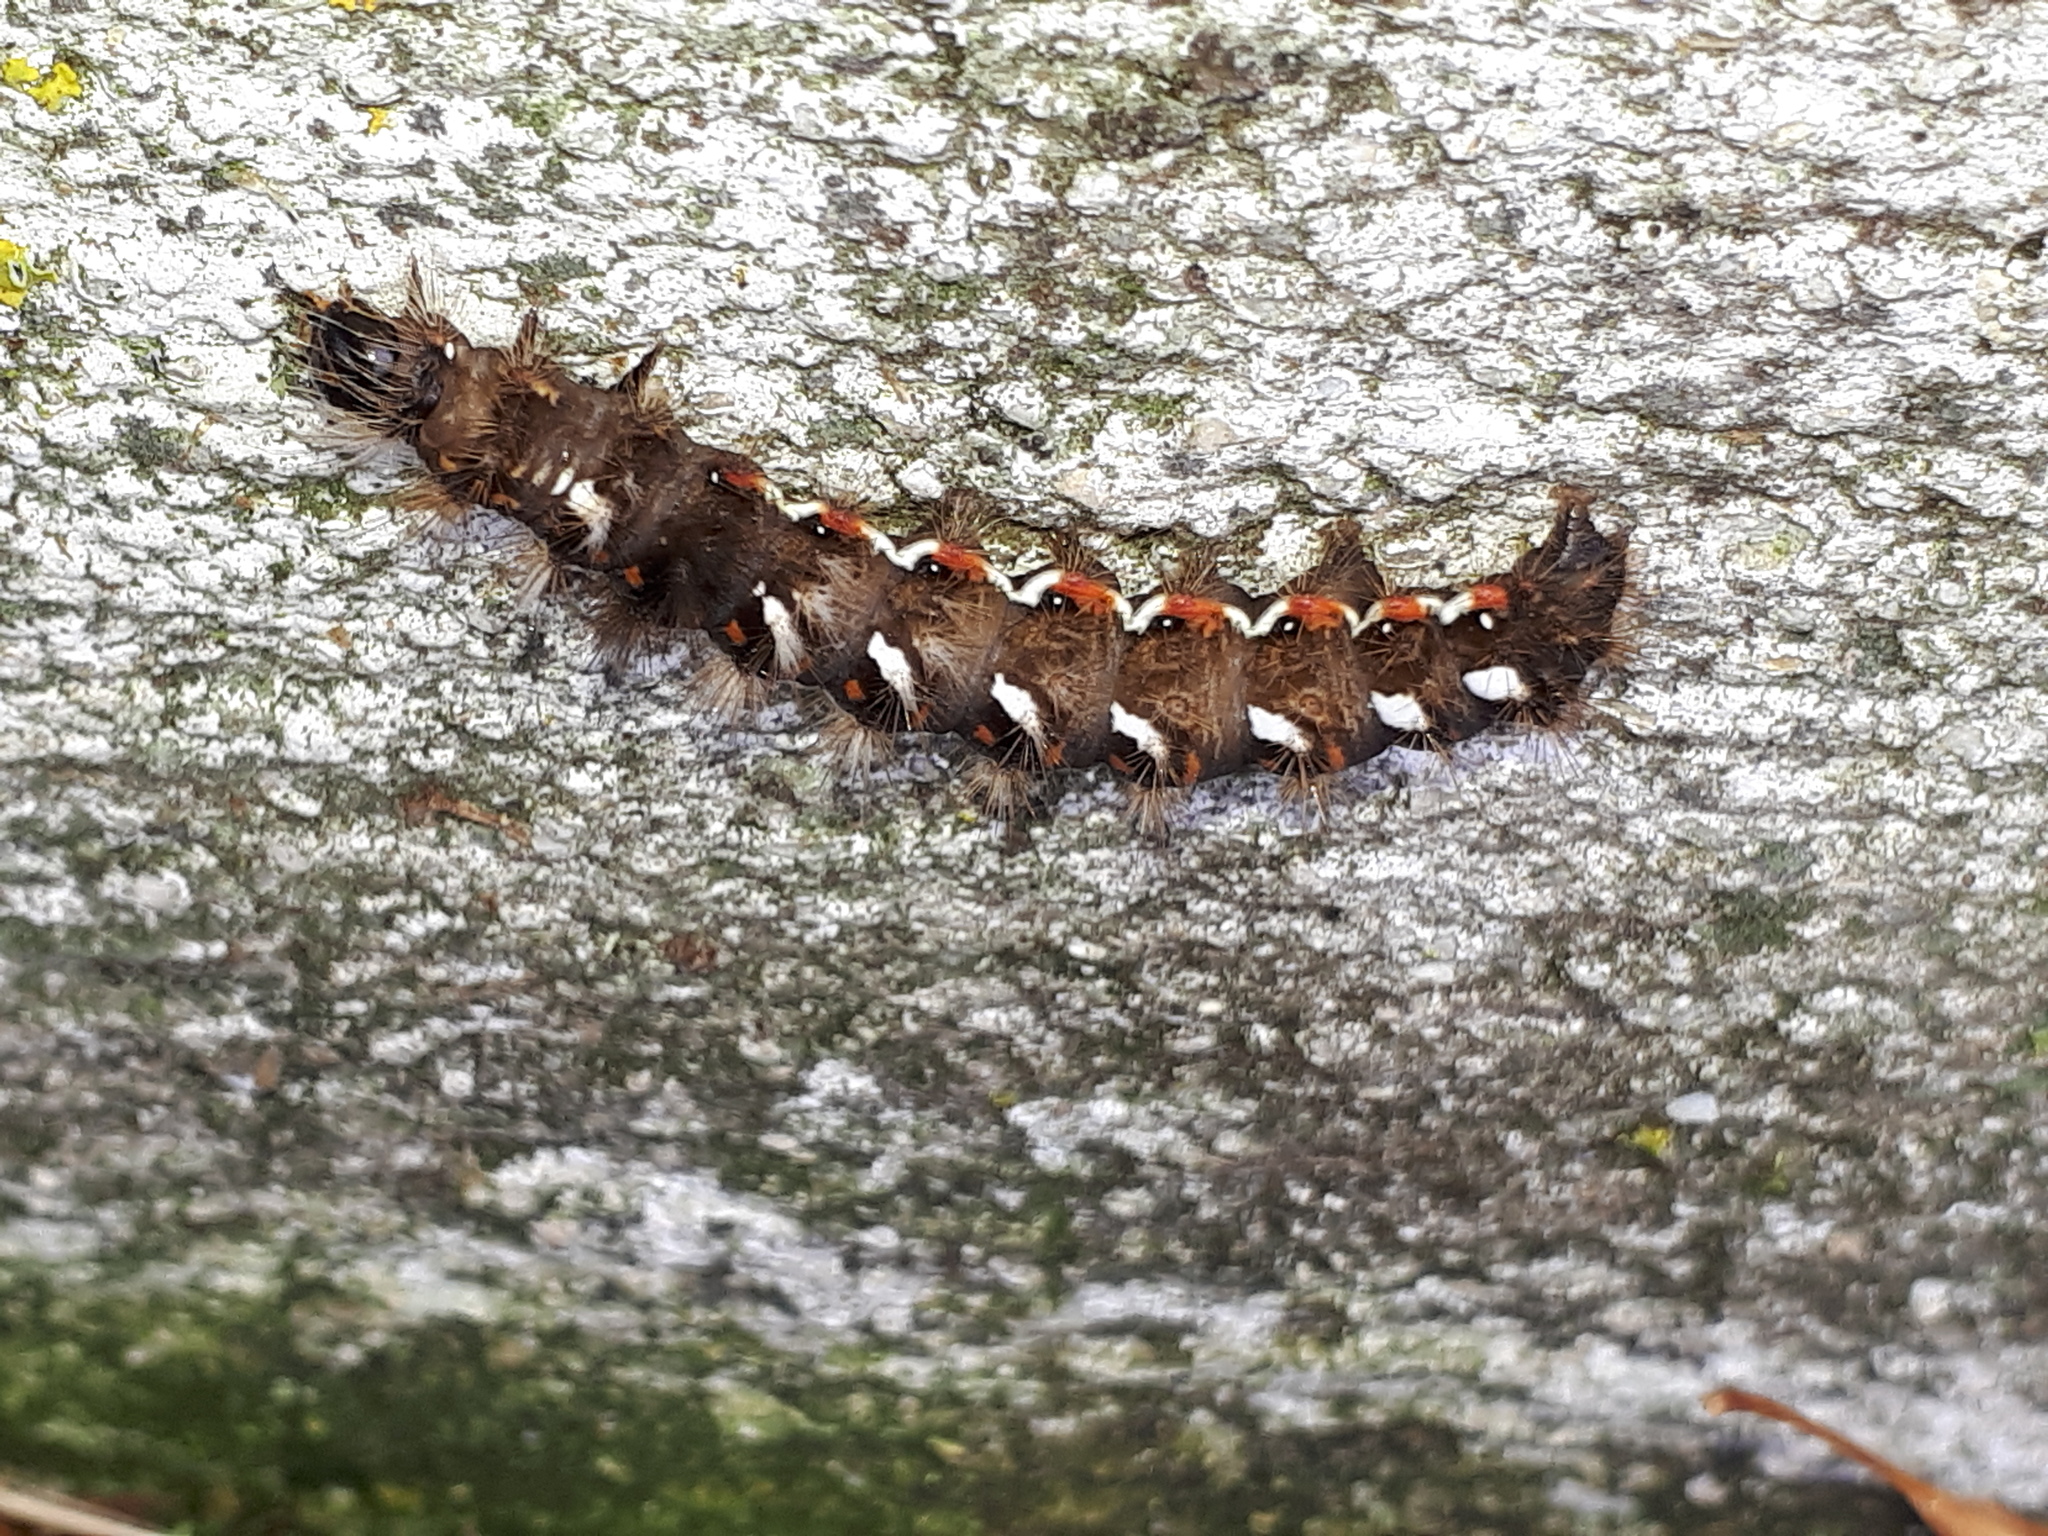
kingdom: Animalia
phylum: Arthropoda
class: Insecta
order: Lepidoptera
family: Noctuidae
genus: Acronicta
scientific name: Acronicta rumicis
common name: Knot grass
